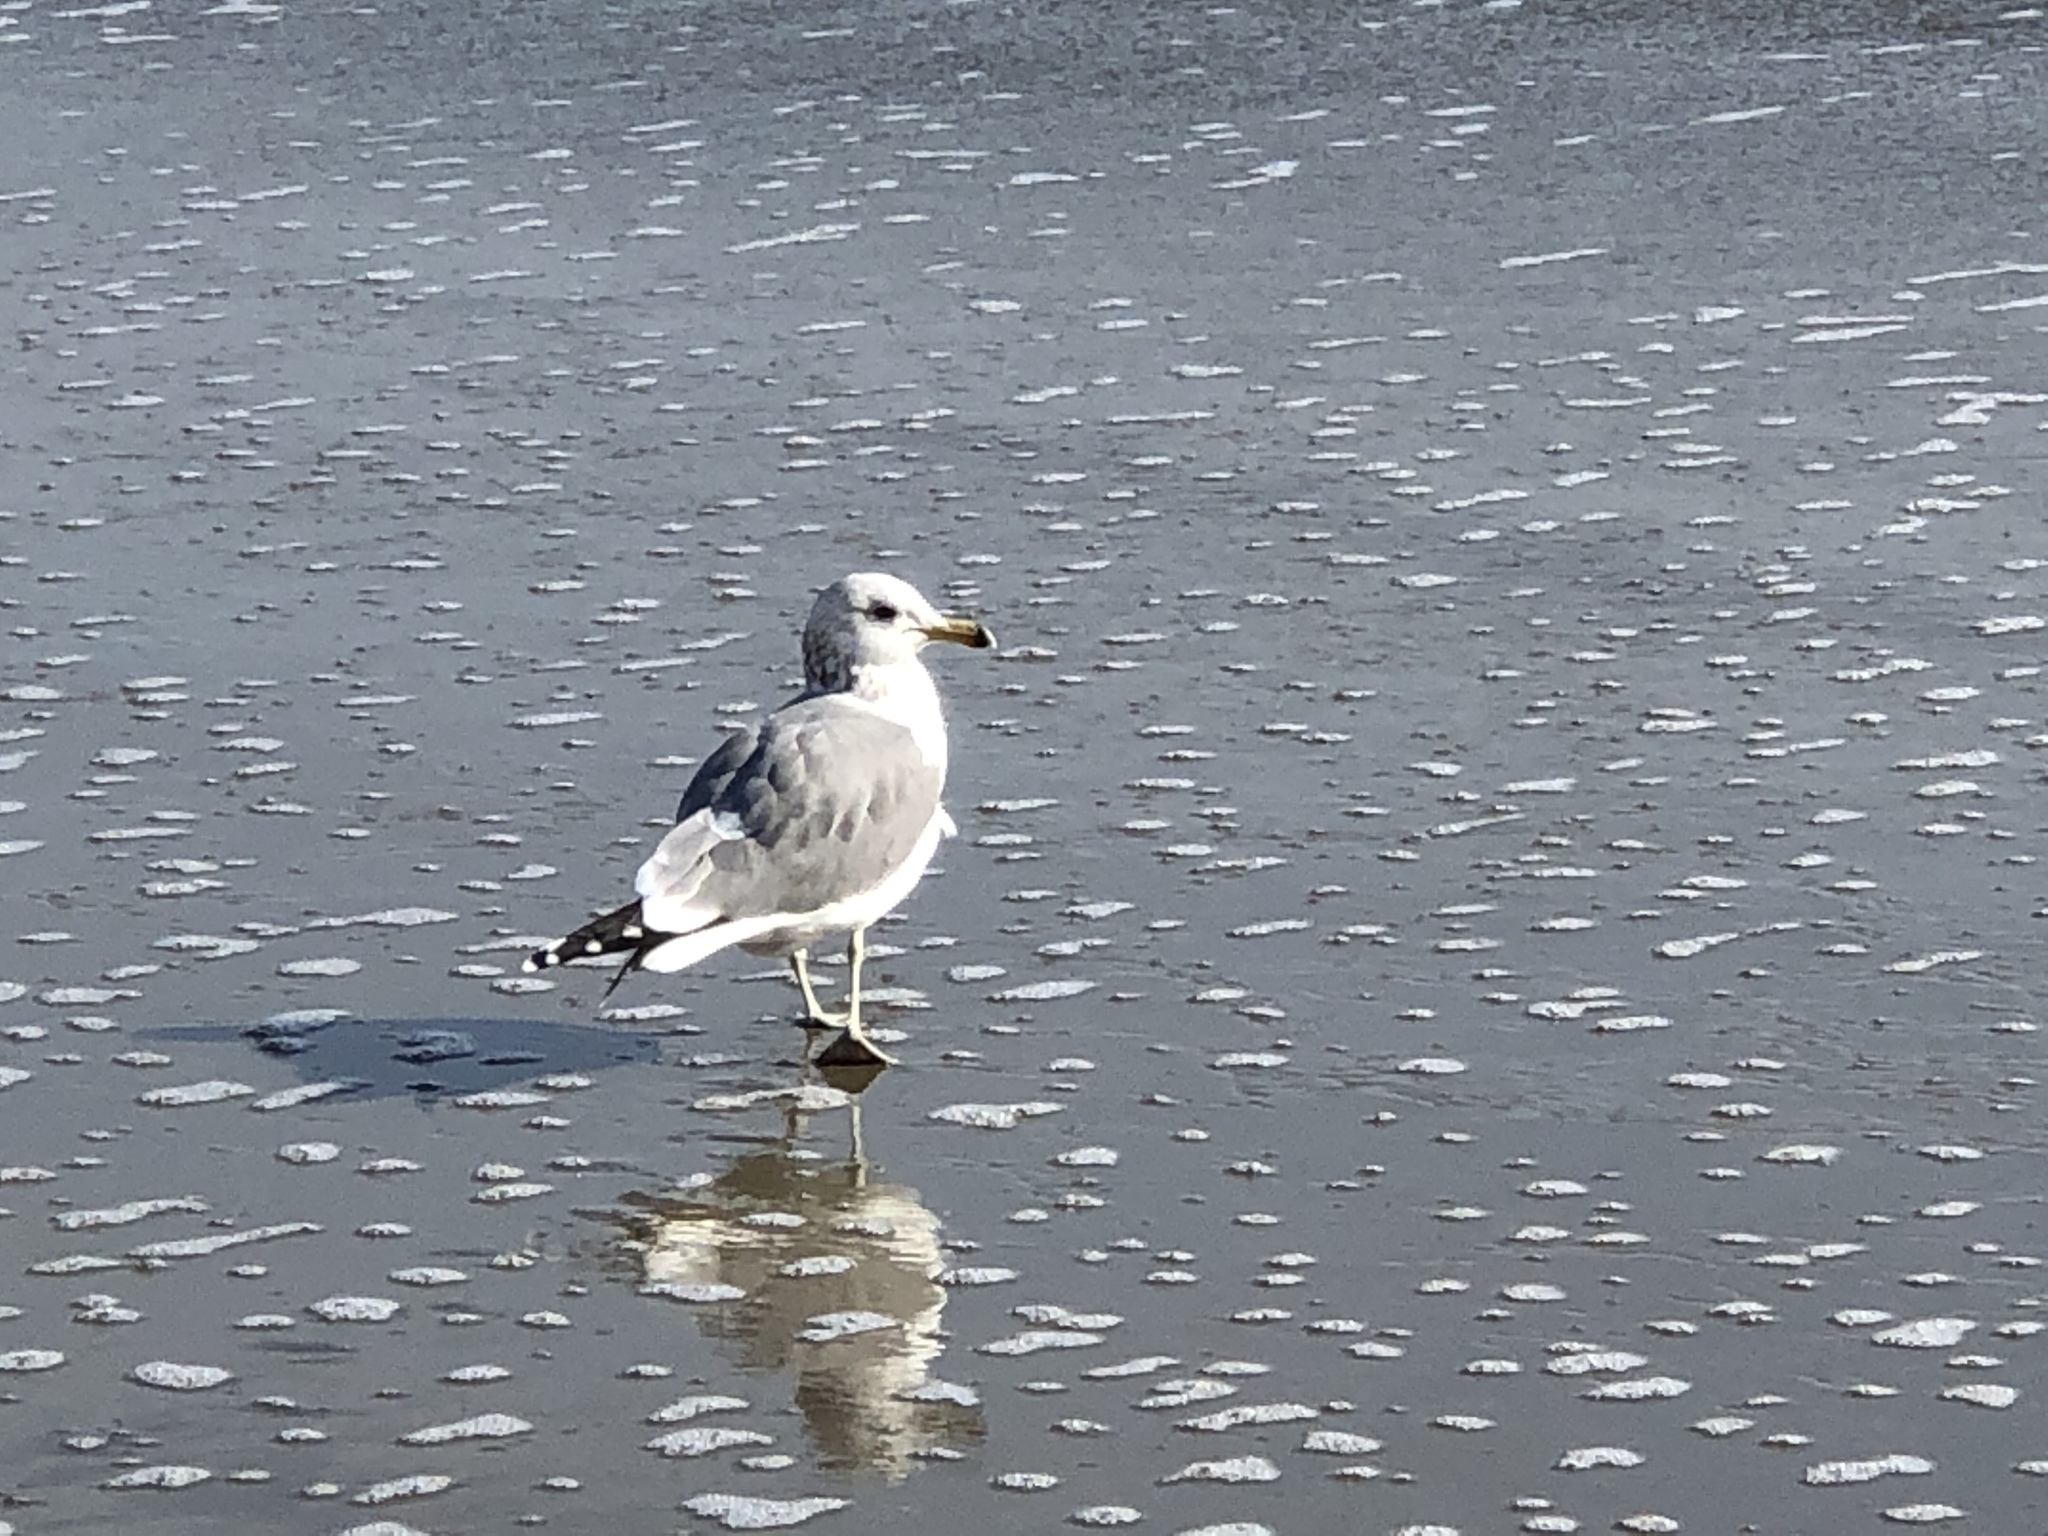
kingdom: Animalia
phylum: Chordata
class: Aves
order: Charadriiformes
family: Laridae
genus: Larus
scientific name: Larus californicus
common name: California gull
